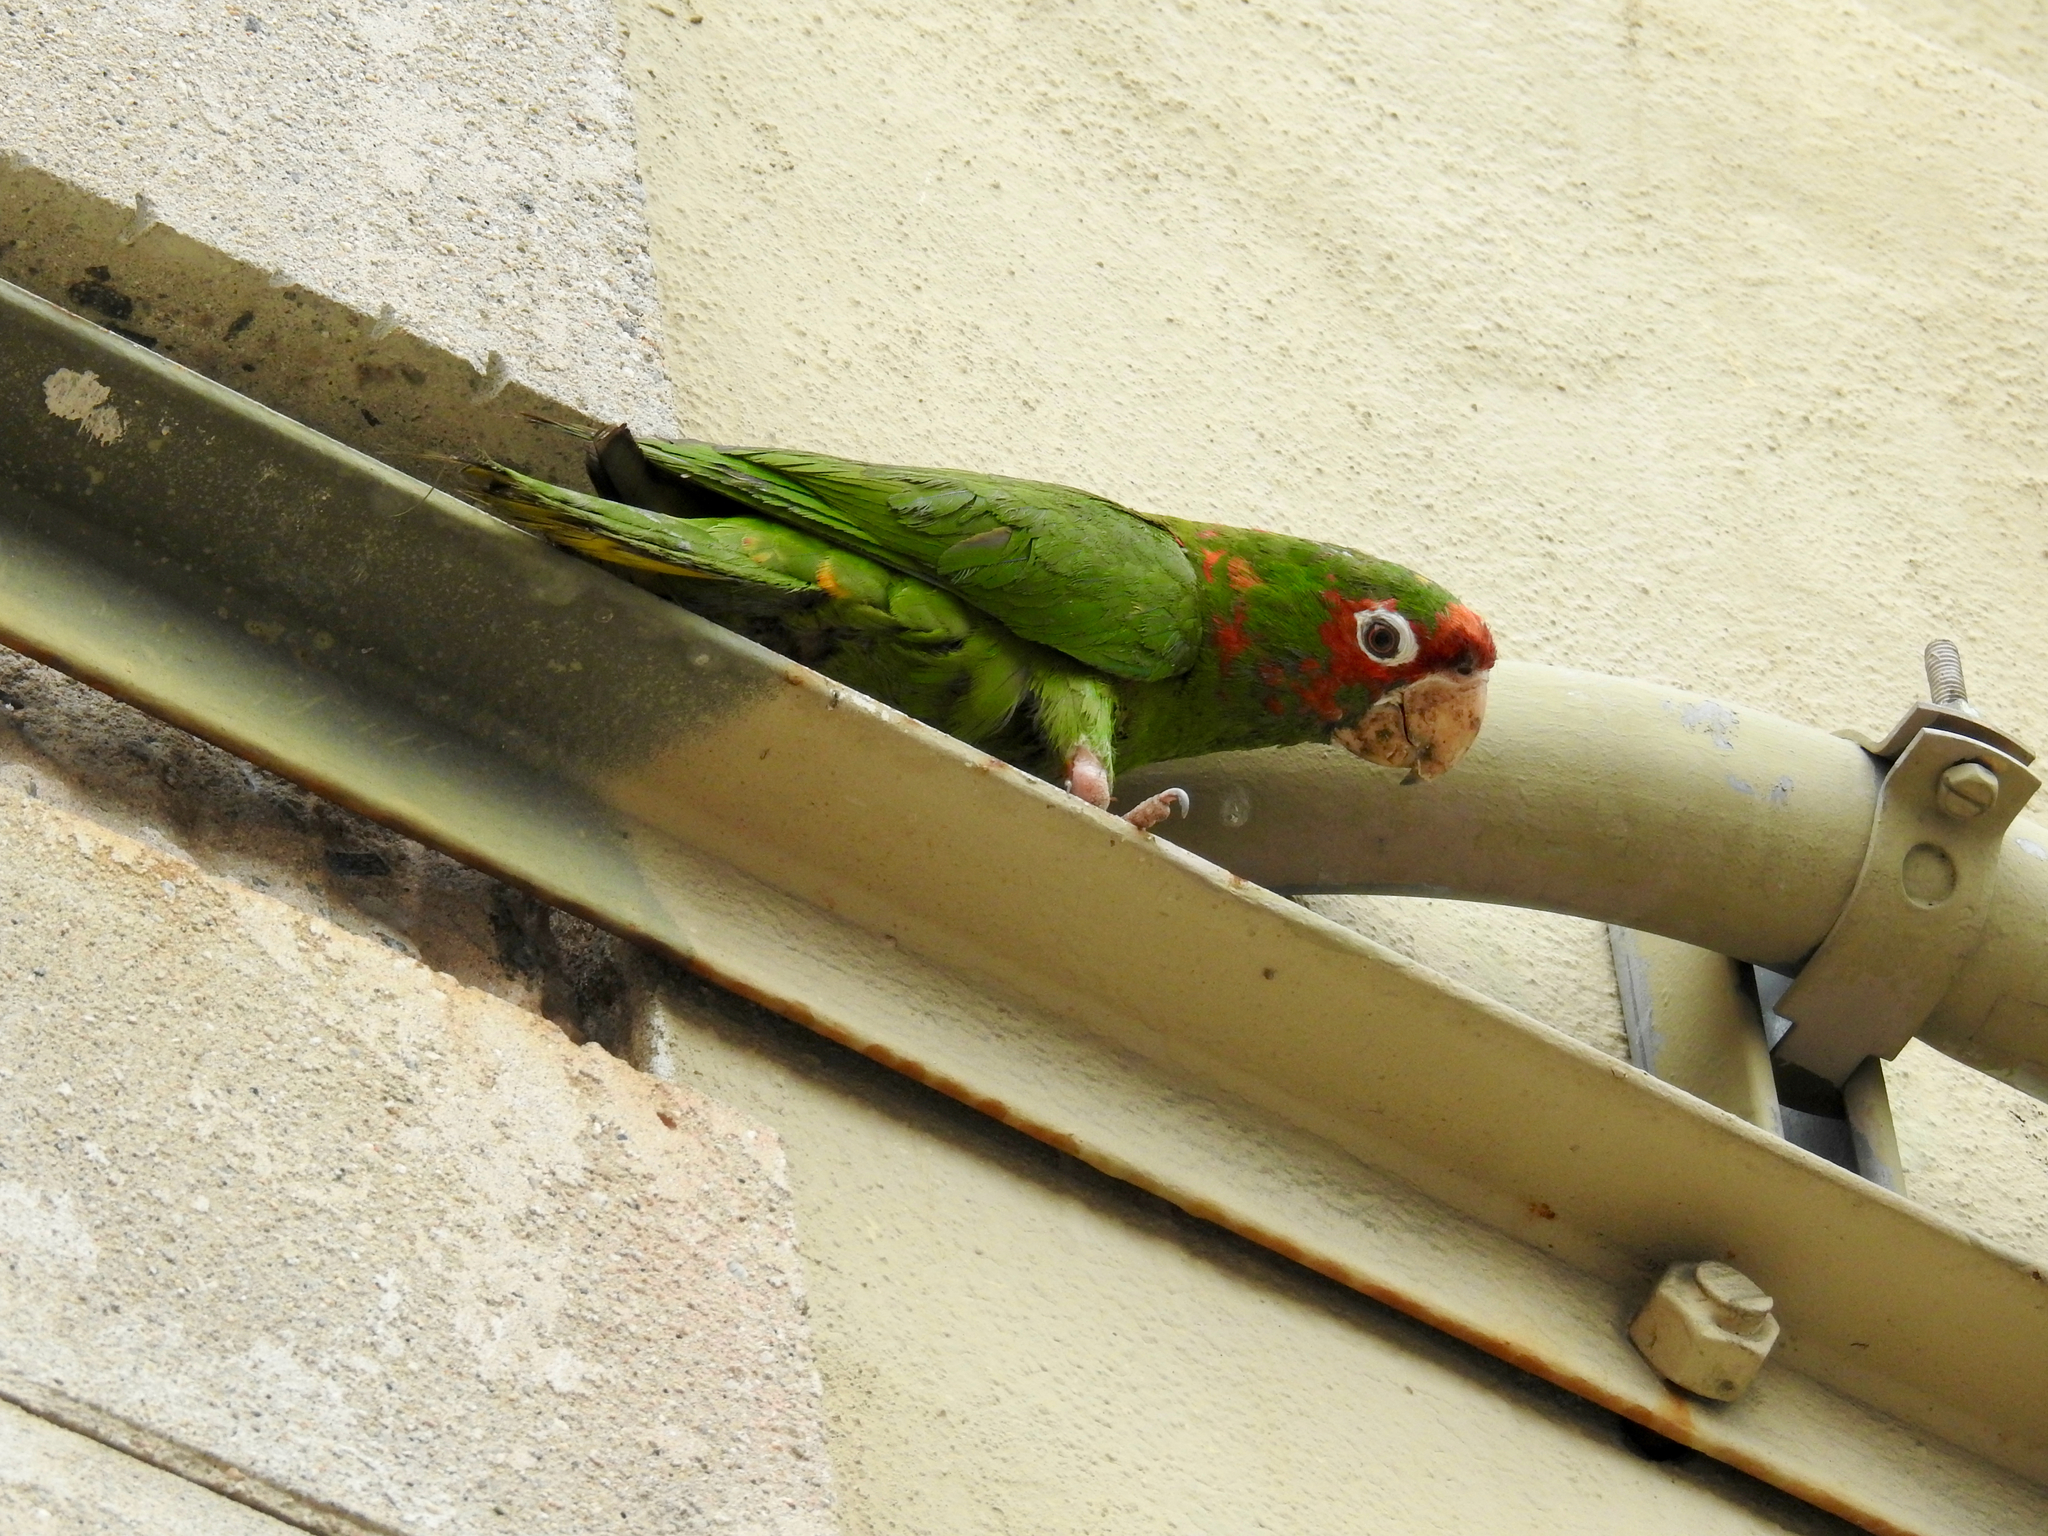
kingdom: Animalia
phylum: Chordata
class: Aves
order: Psittaciformes
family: Psittacidae
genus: Aratinga
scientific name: Aratinga mitrata
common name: Mitred parakeet
